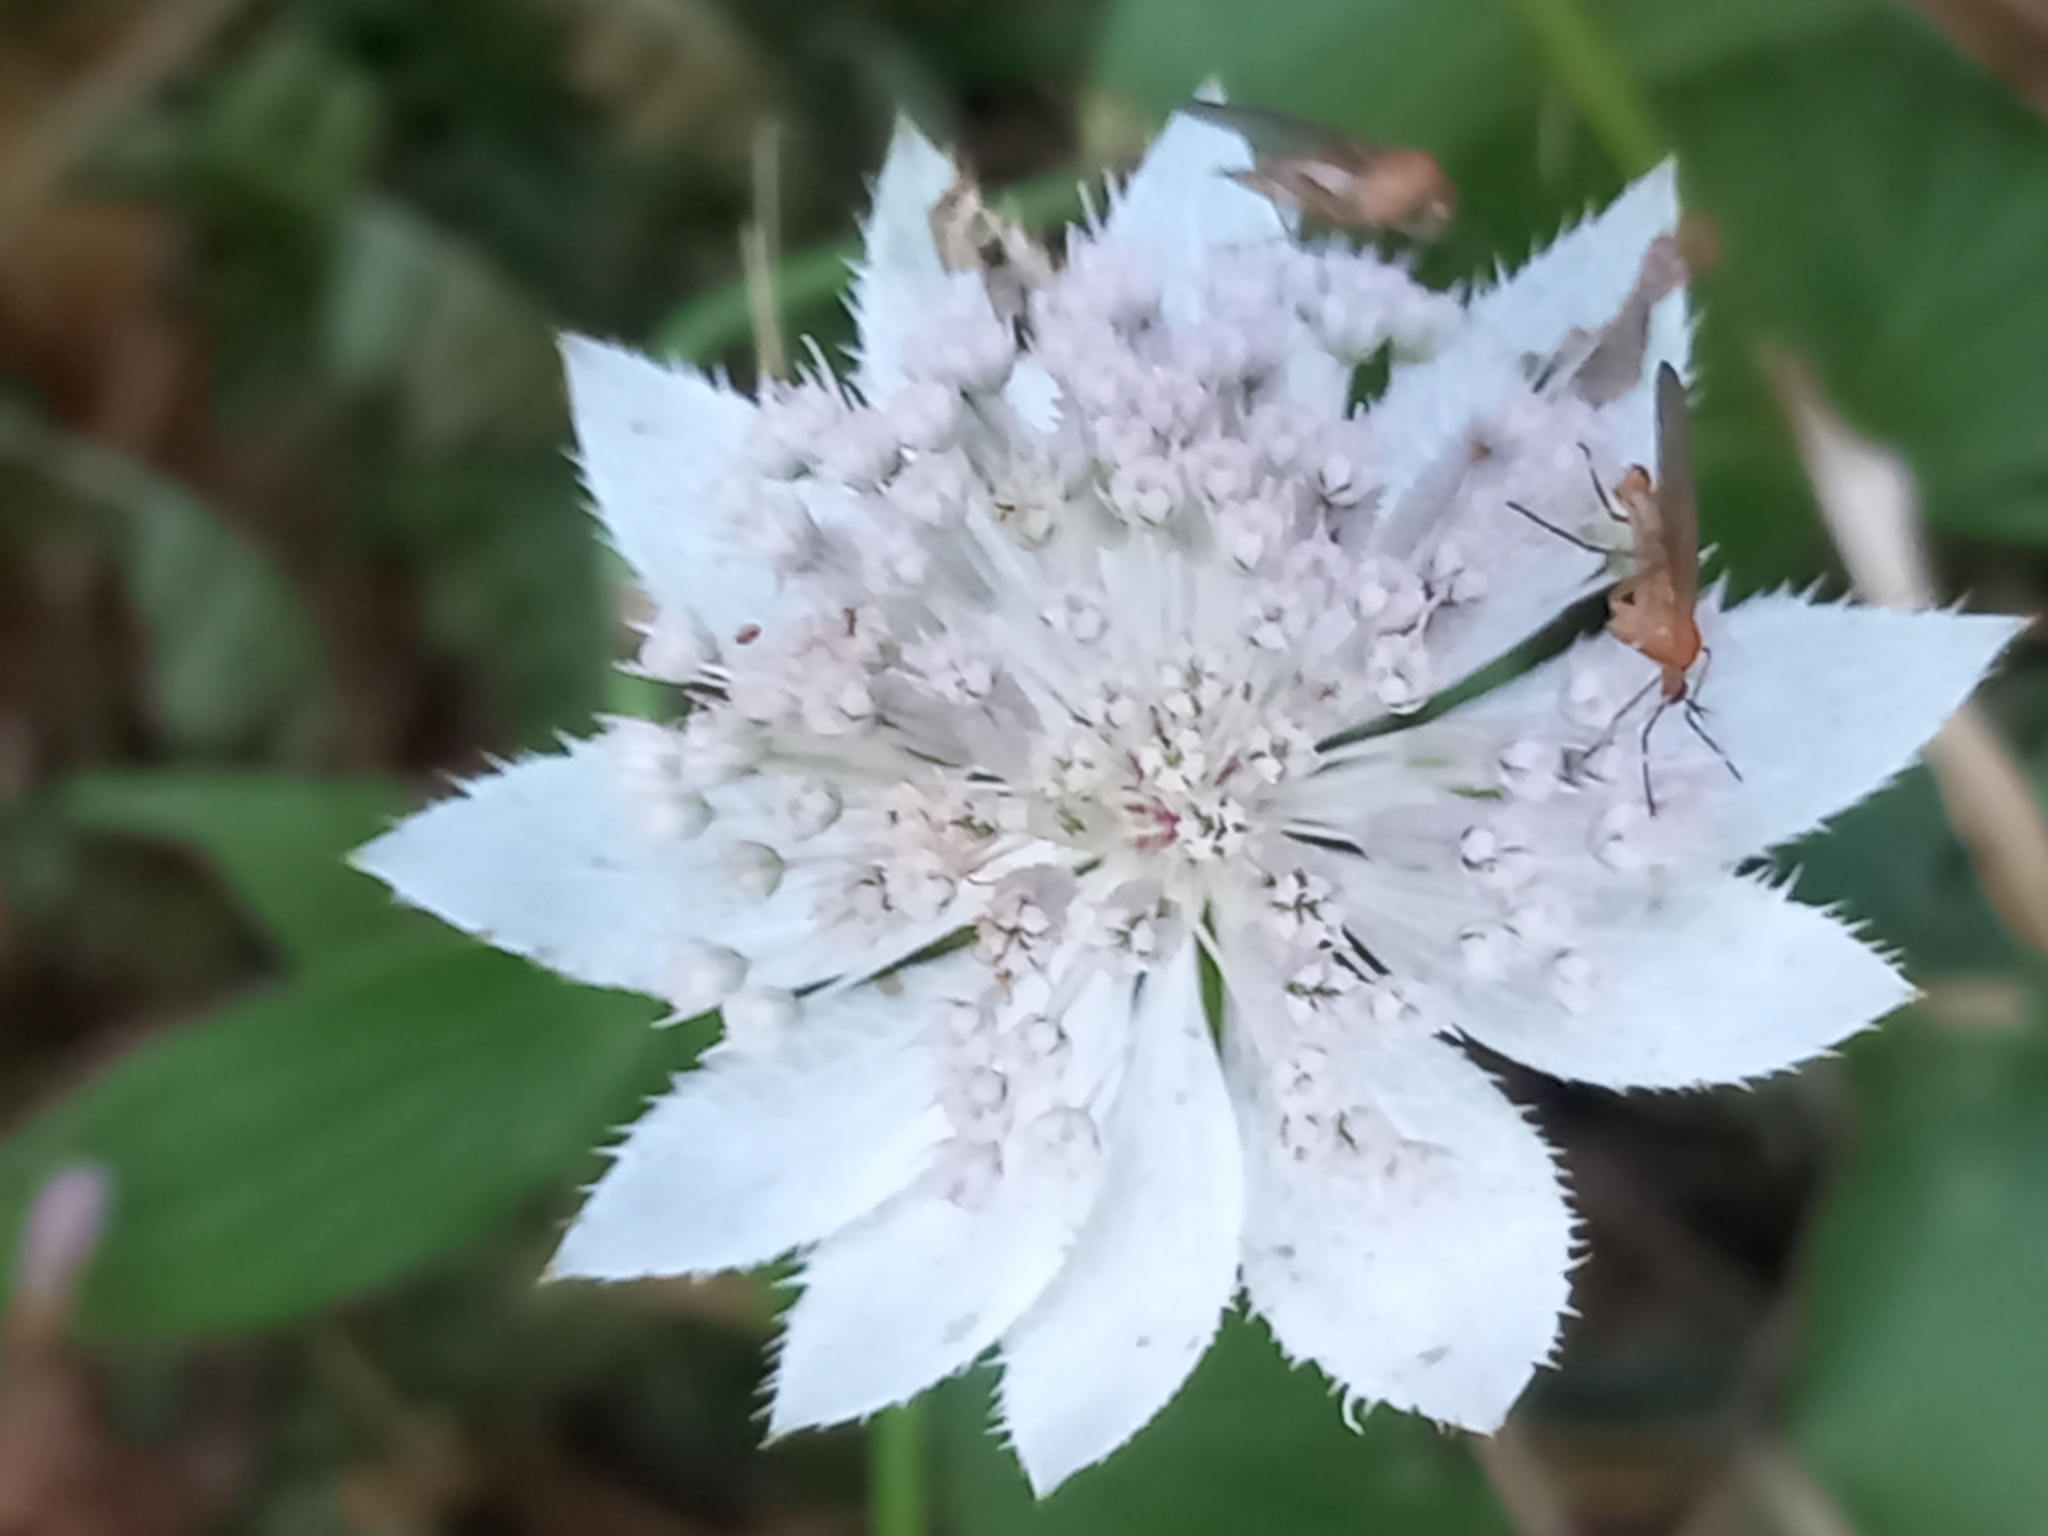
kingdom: Plantae
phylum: Tracheophyta
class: Magnoliopsida
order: Apiales
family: Apiaceae
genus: Astrantia
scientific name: Astrantia maxima
